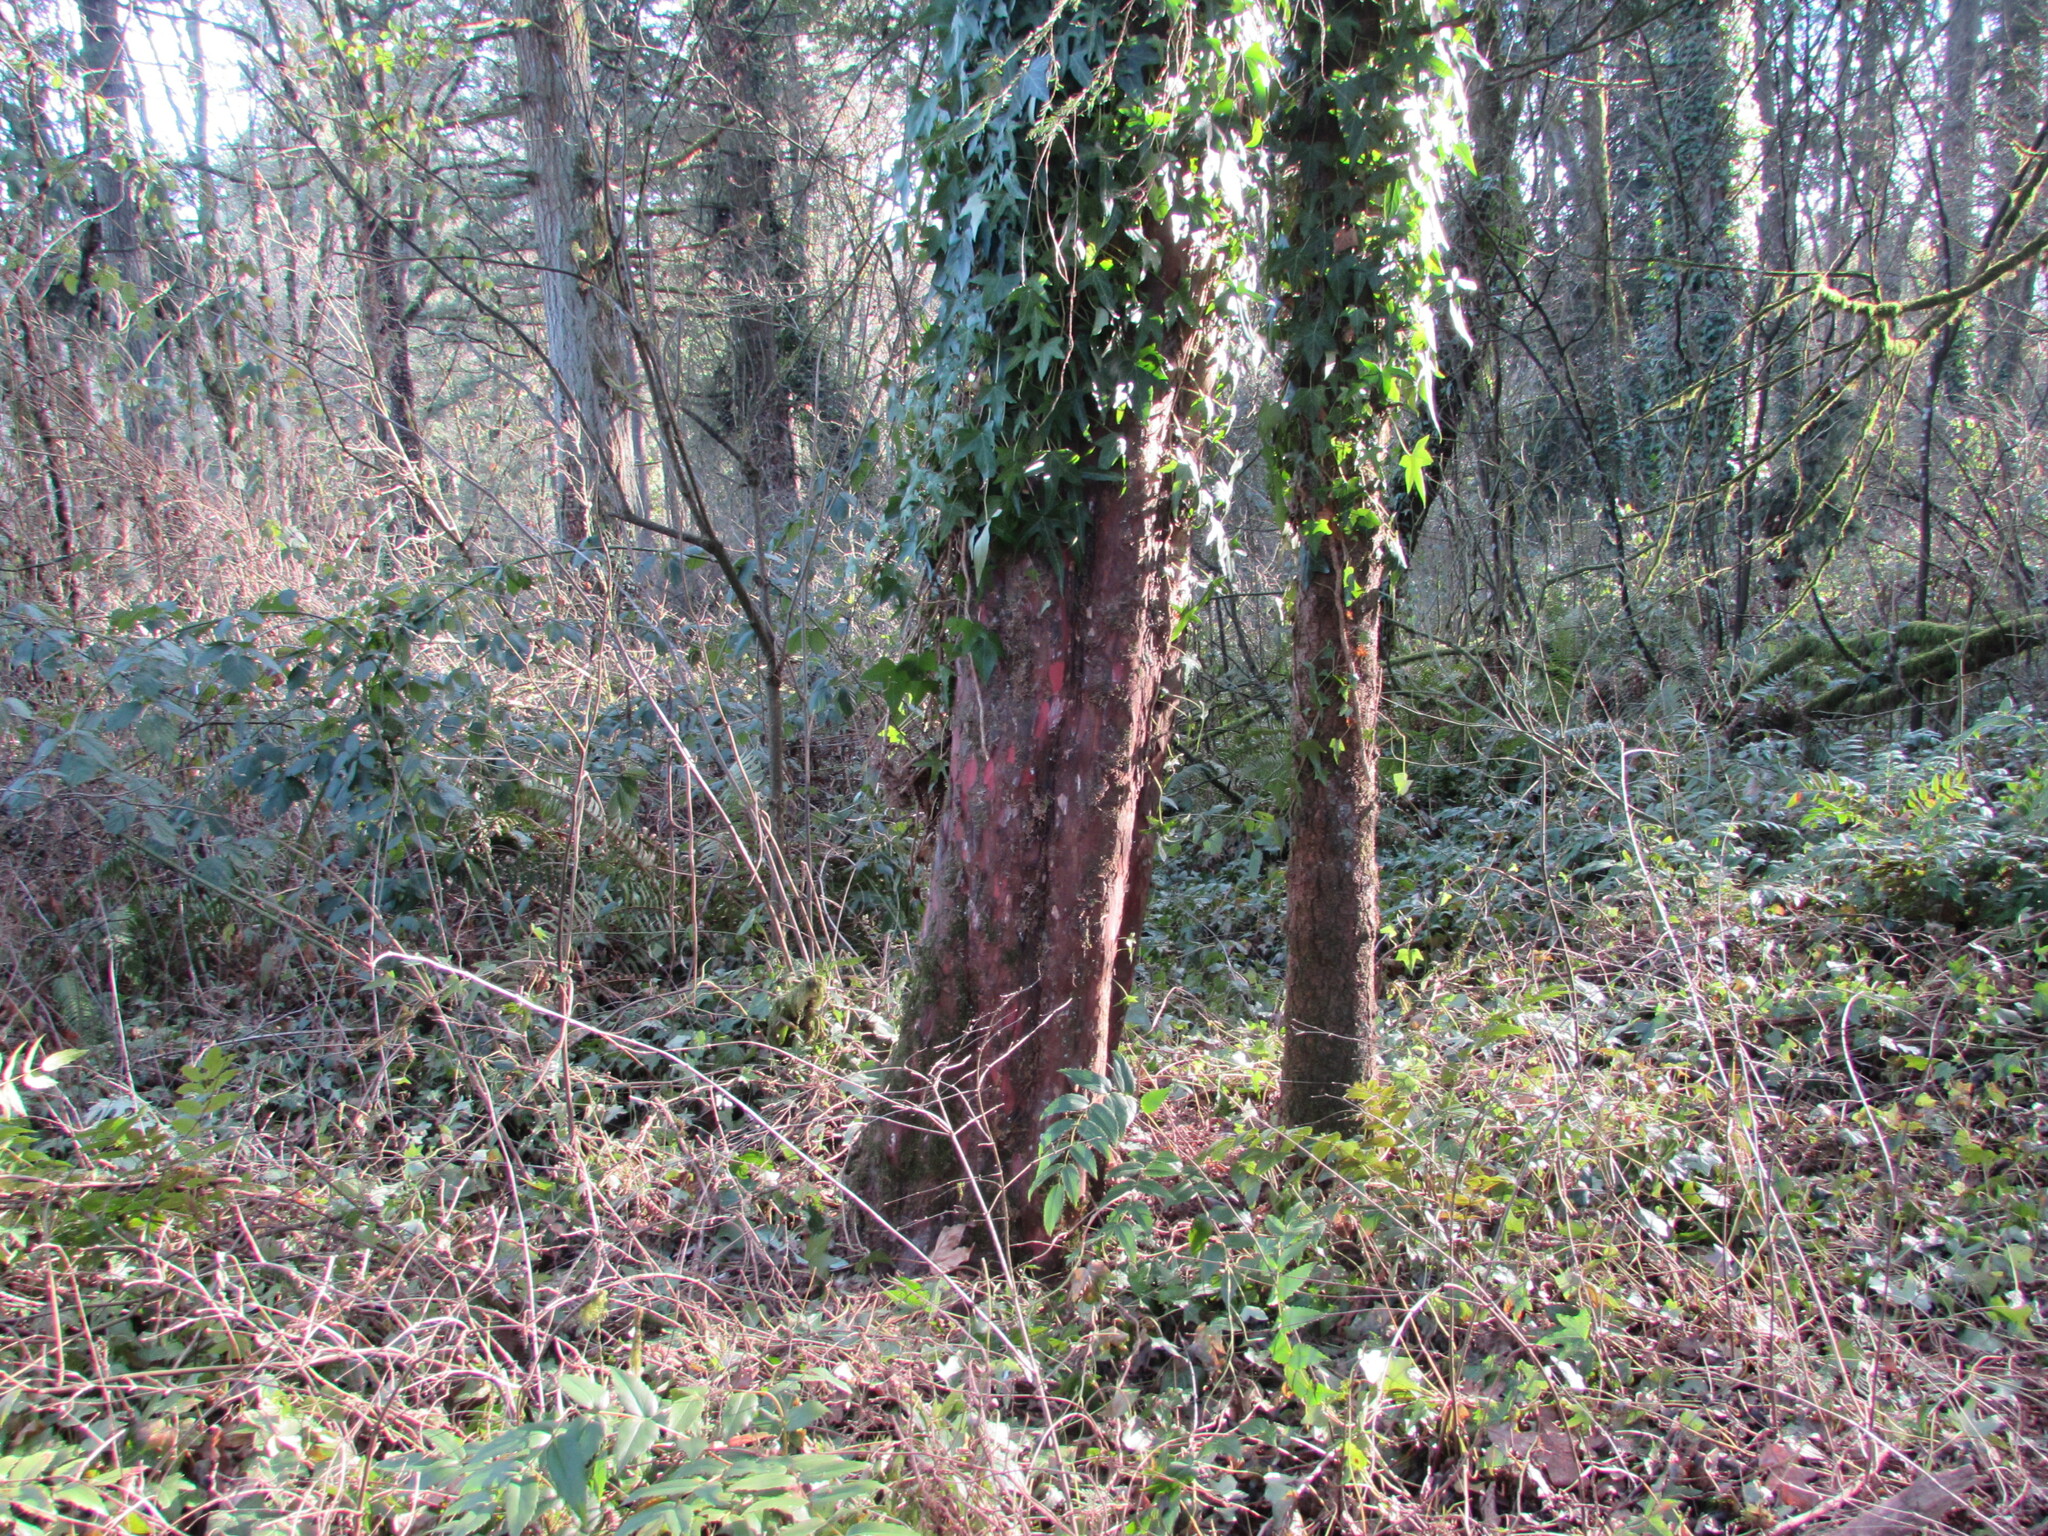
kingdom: Plantae
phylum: Tracheophyta
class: Pinopsida
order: Pinales
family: Taxaceae
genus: Taxus
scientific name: Taxus brevifolia
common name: Pacific yew
